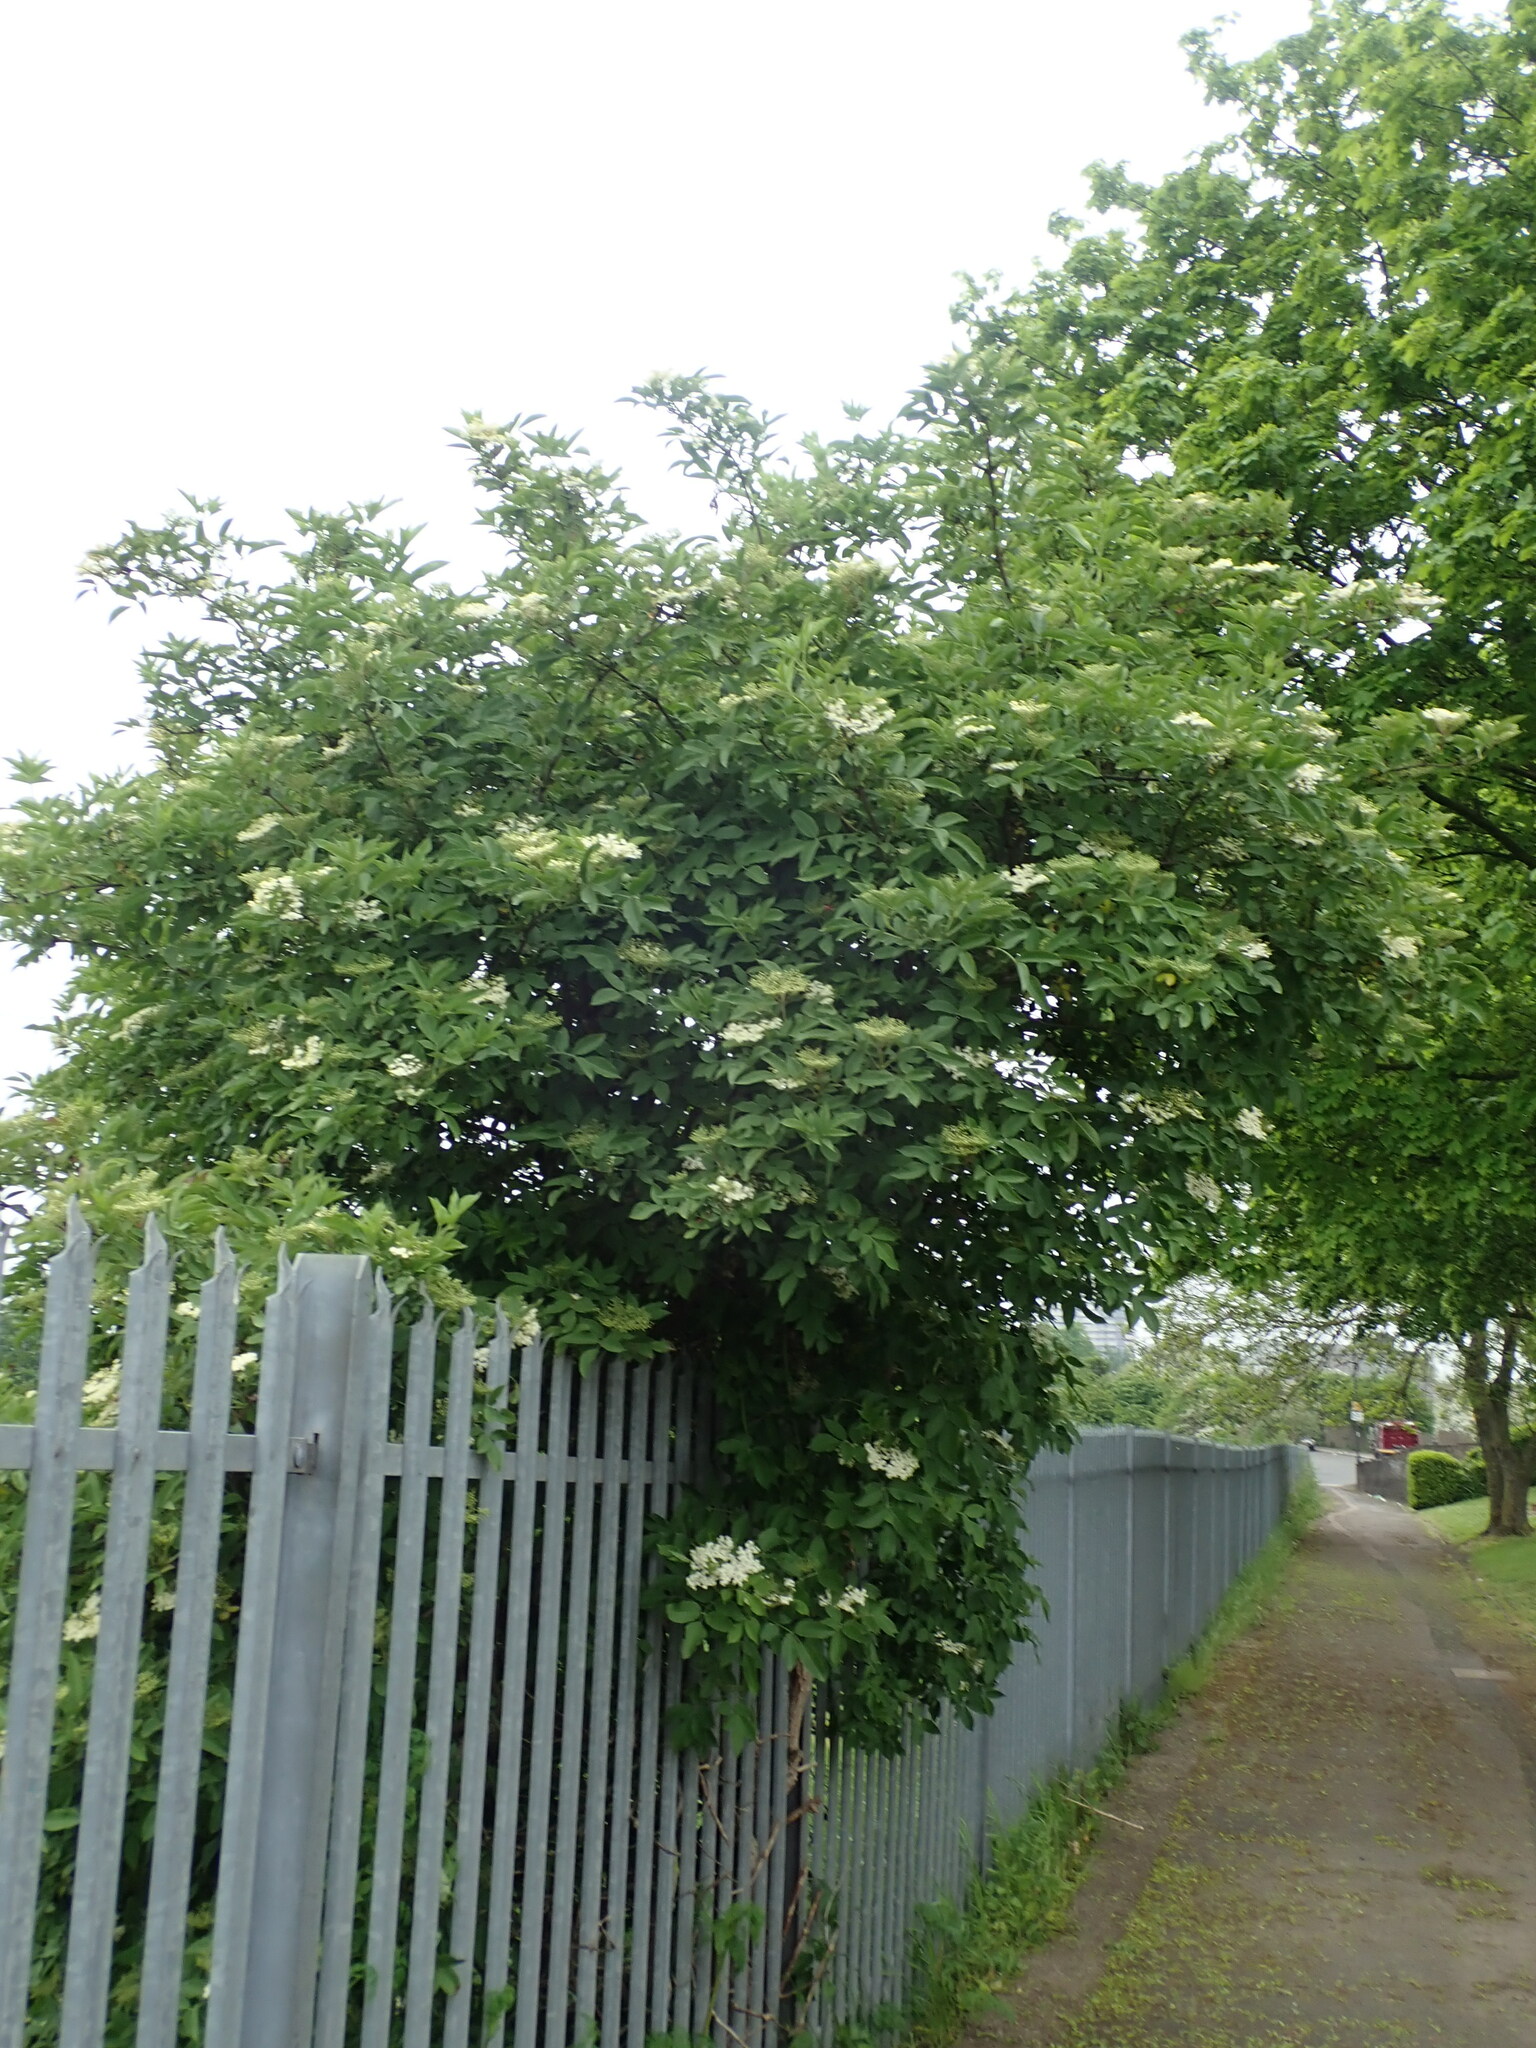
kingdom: Plantae
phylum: Tracheophyta
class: Magnoliopsida
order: Dipsacales
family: Viburnaceae
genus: Sambucus
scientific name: Sambucus nigra
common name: Elder
